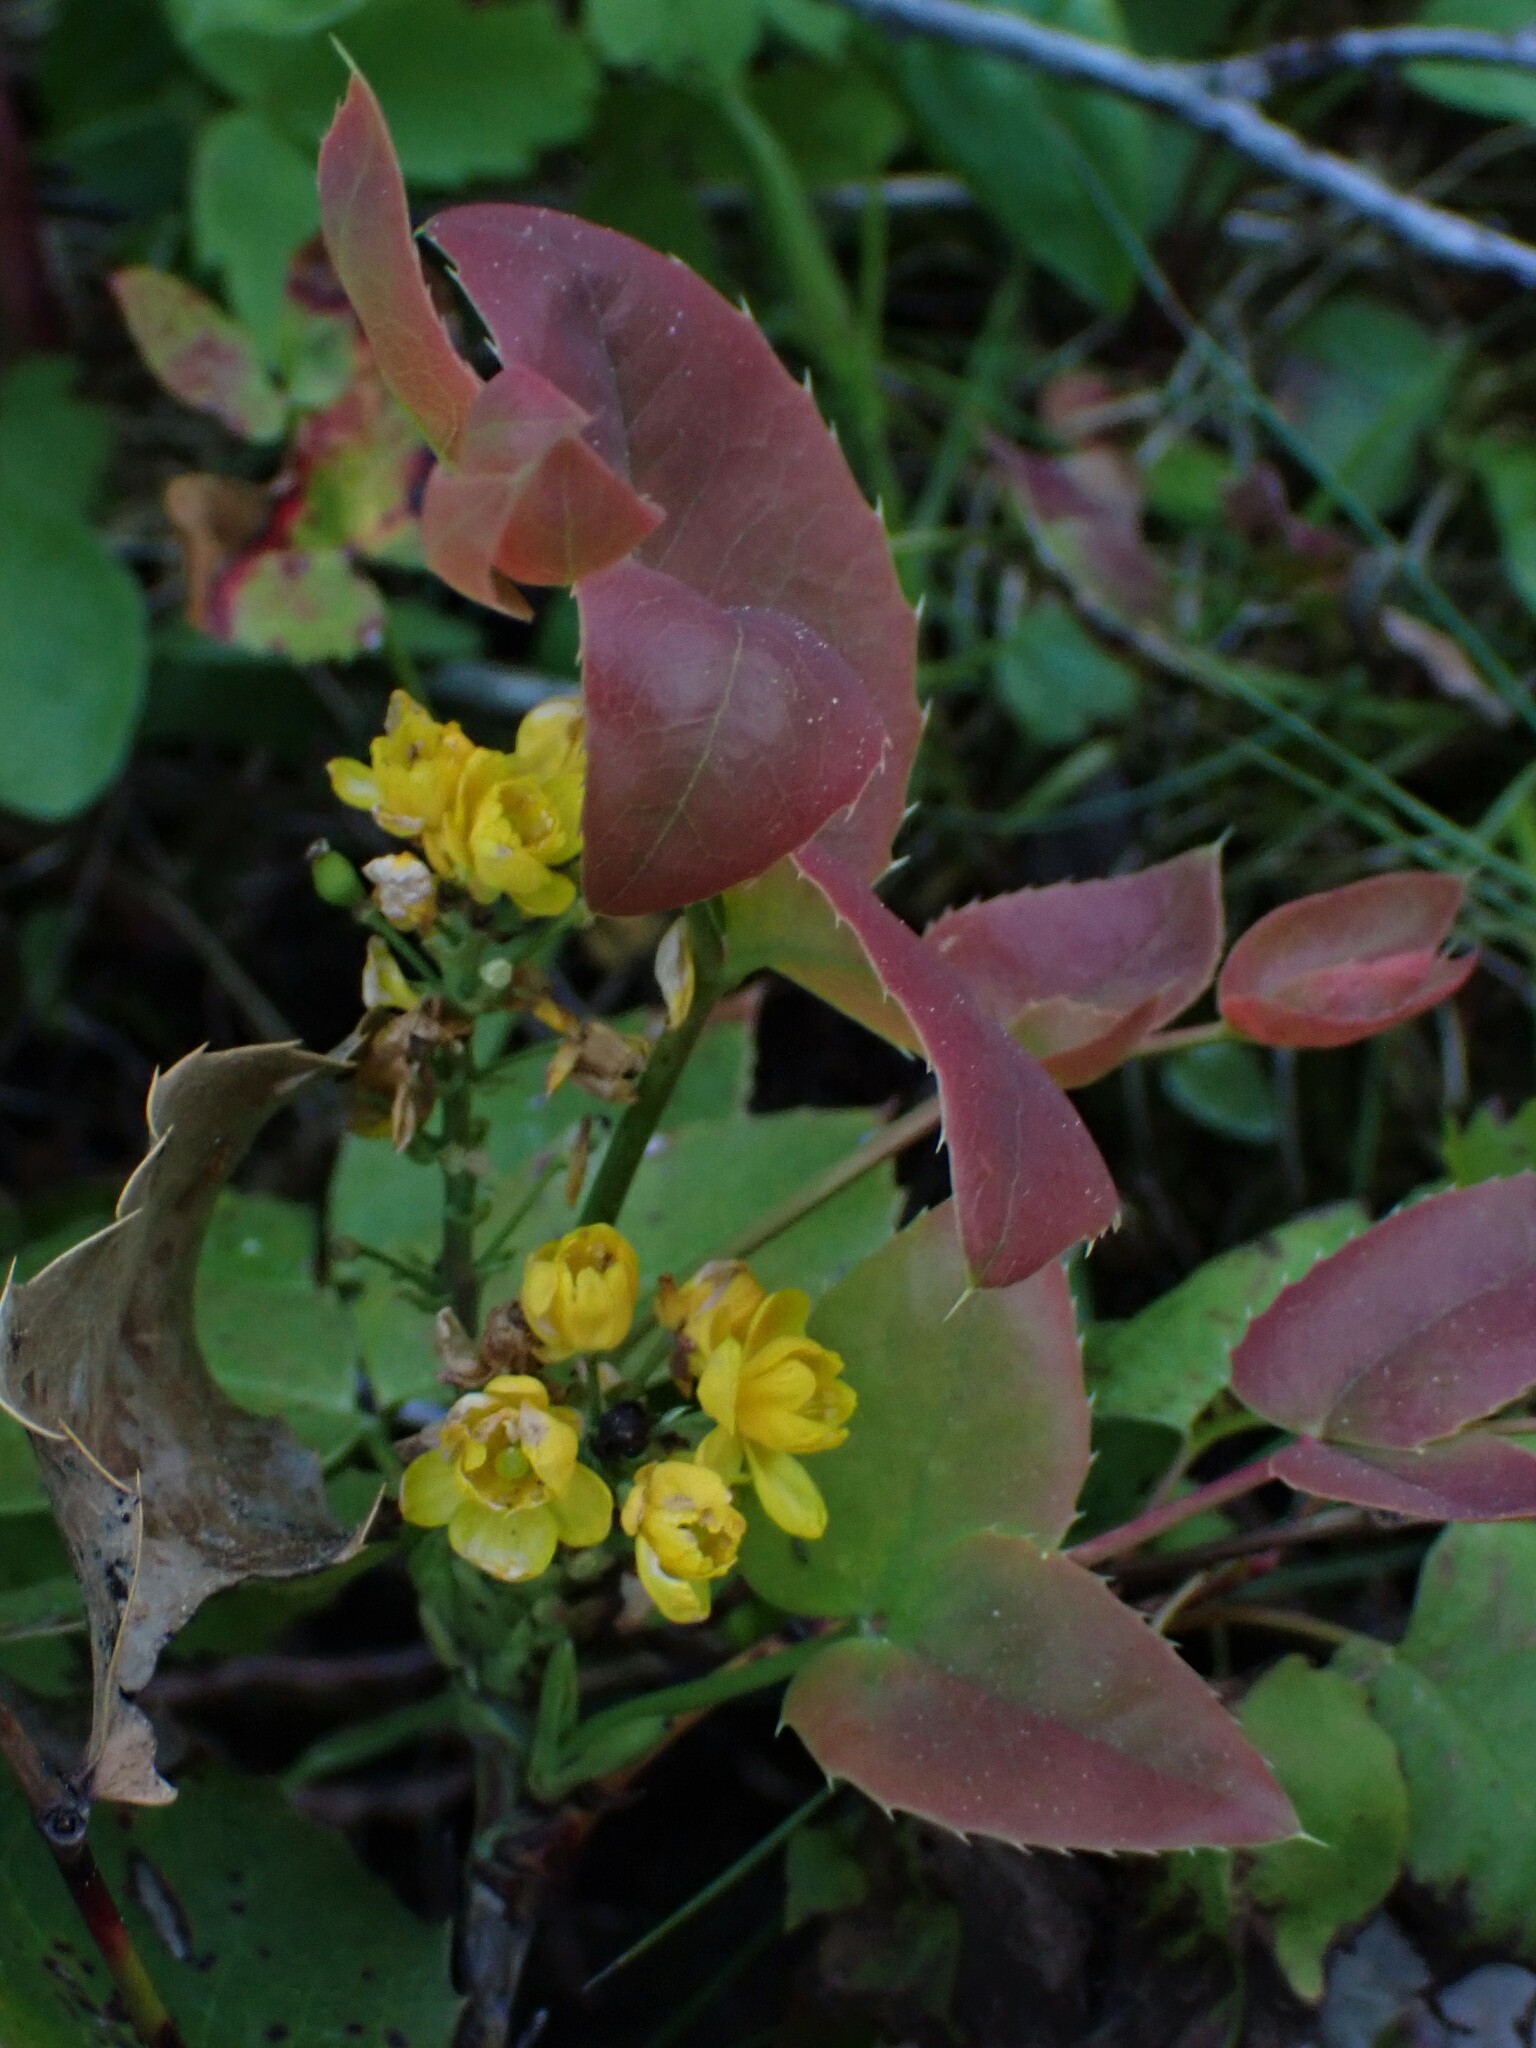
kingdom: Plantae
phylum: Tracheophyta
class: Magnoliopsida
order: Ranunculales
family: Berberidaceae
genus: Mahonia
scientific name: Mahonia repens
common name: Creeping oregon-grape
